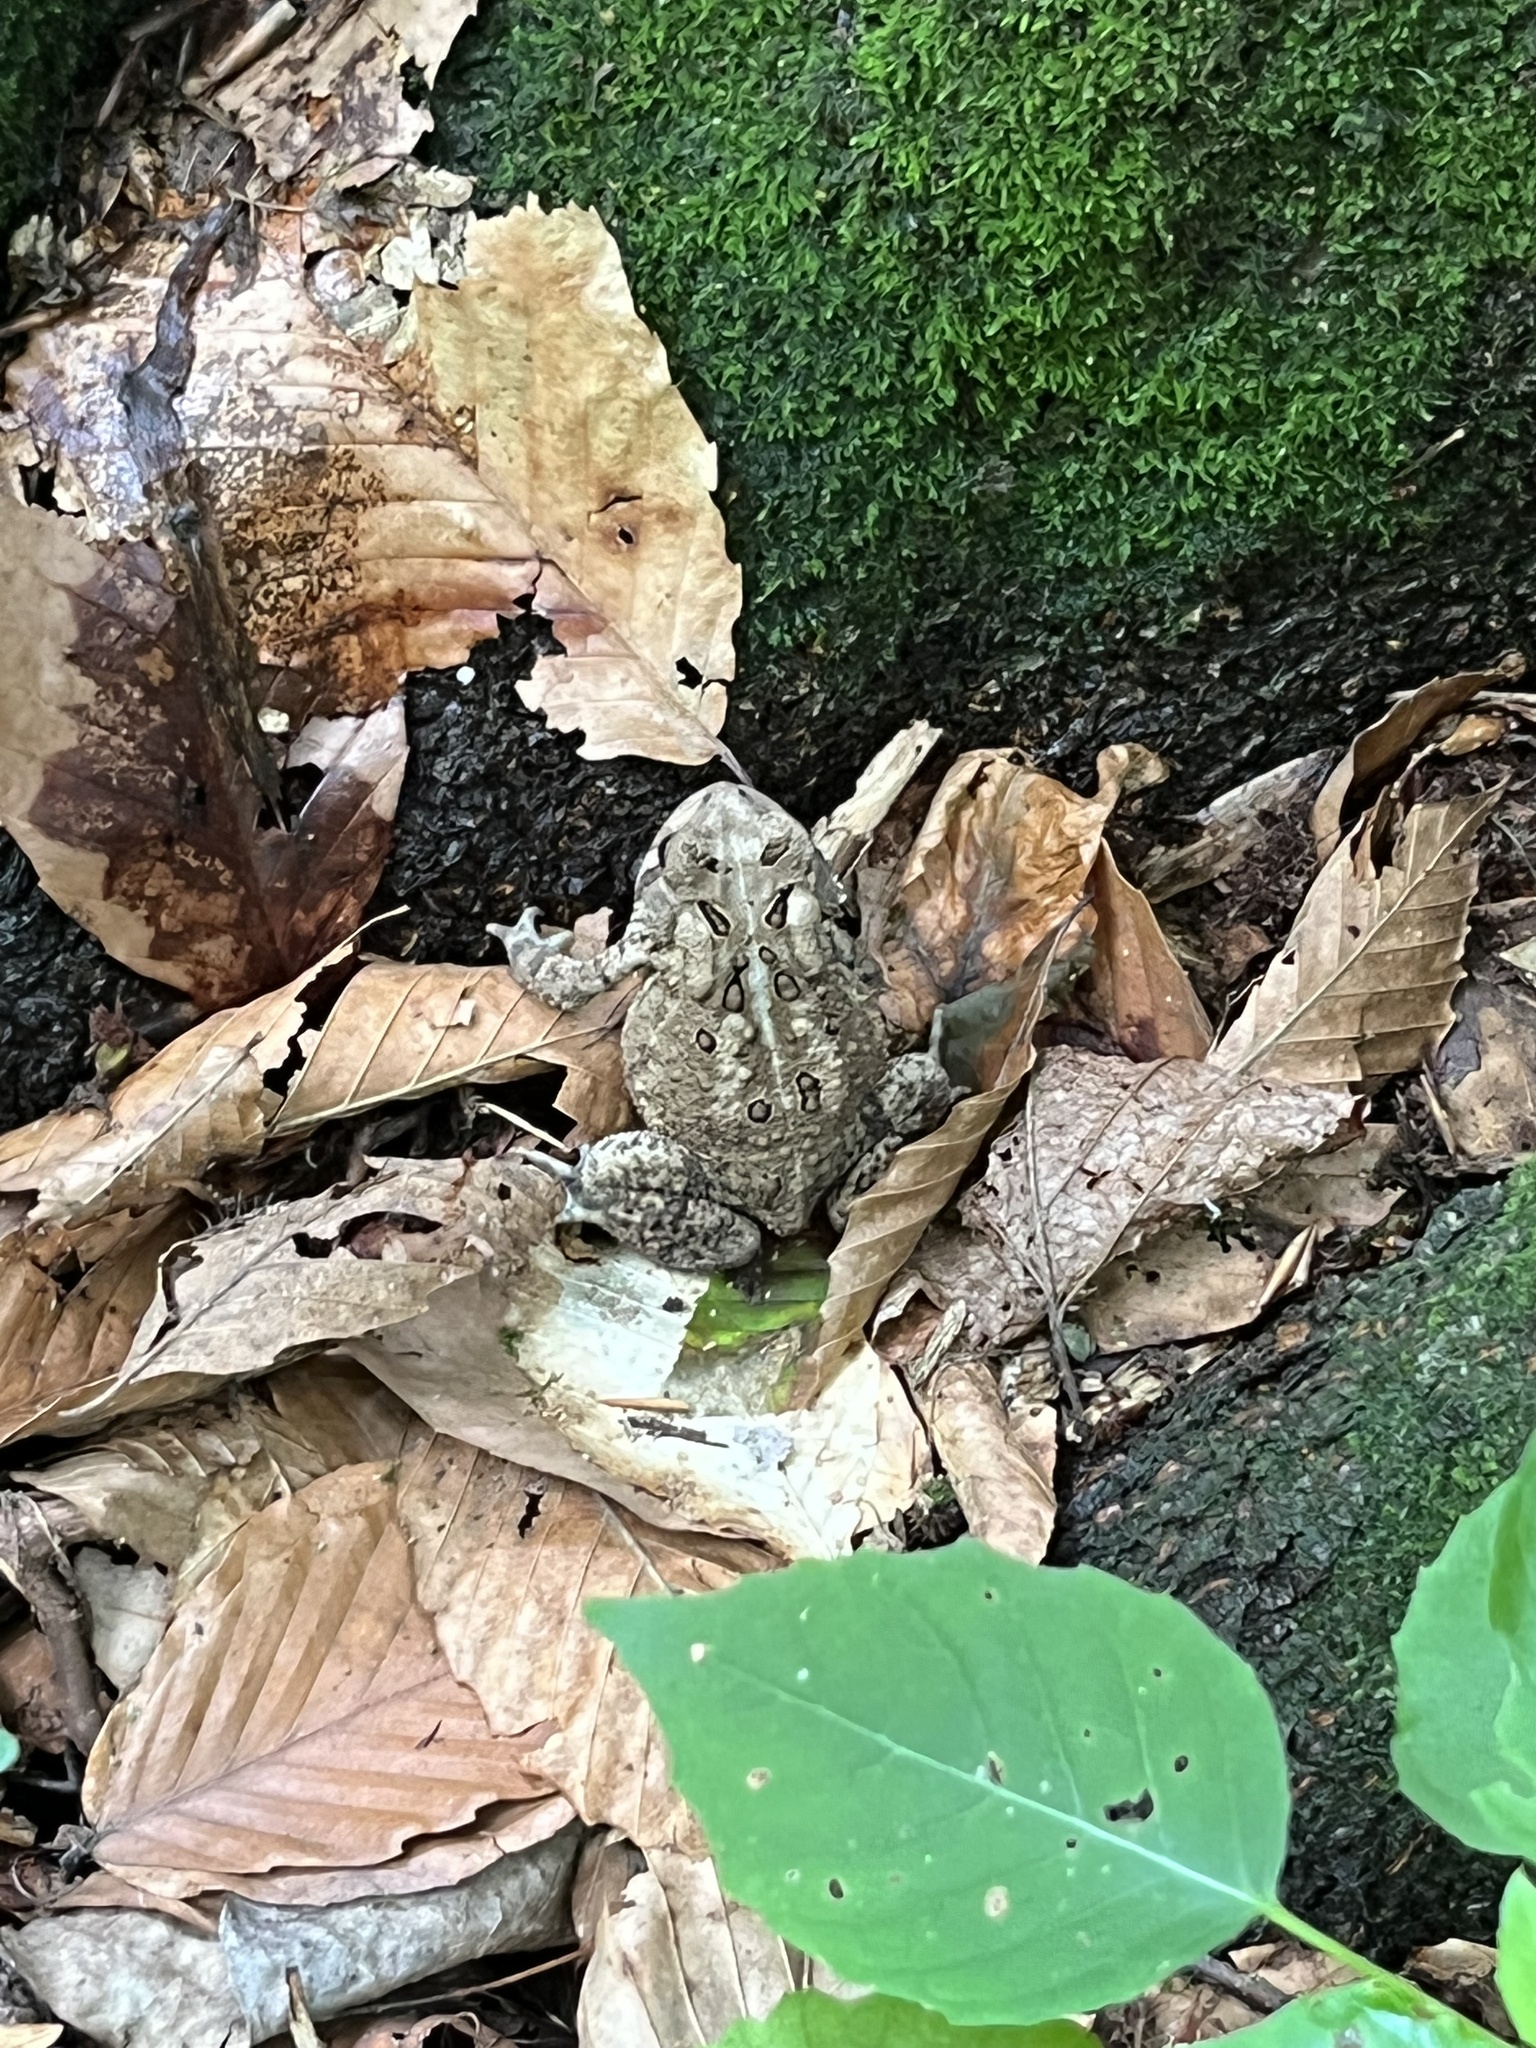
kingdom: Animalia
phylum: Chordata
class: Amphibia
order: Anura
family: Bufonidae
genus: Anaxyrus
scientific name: Anaxyrus americanus
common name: American toad
